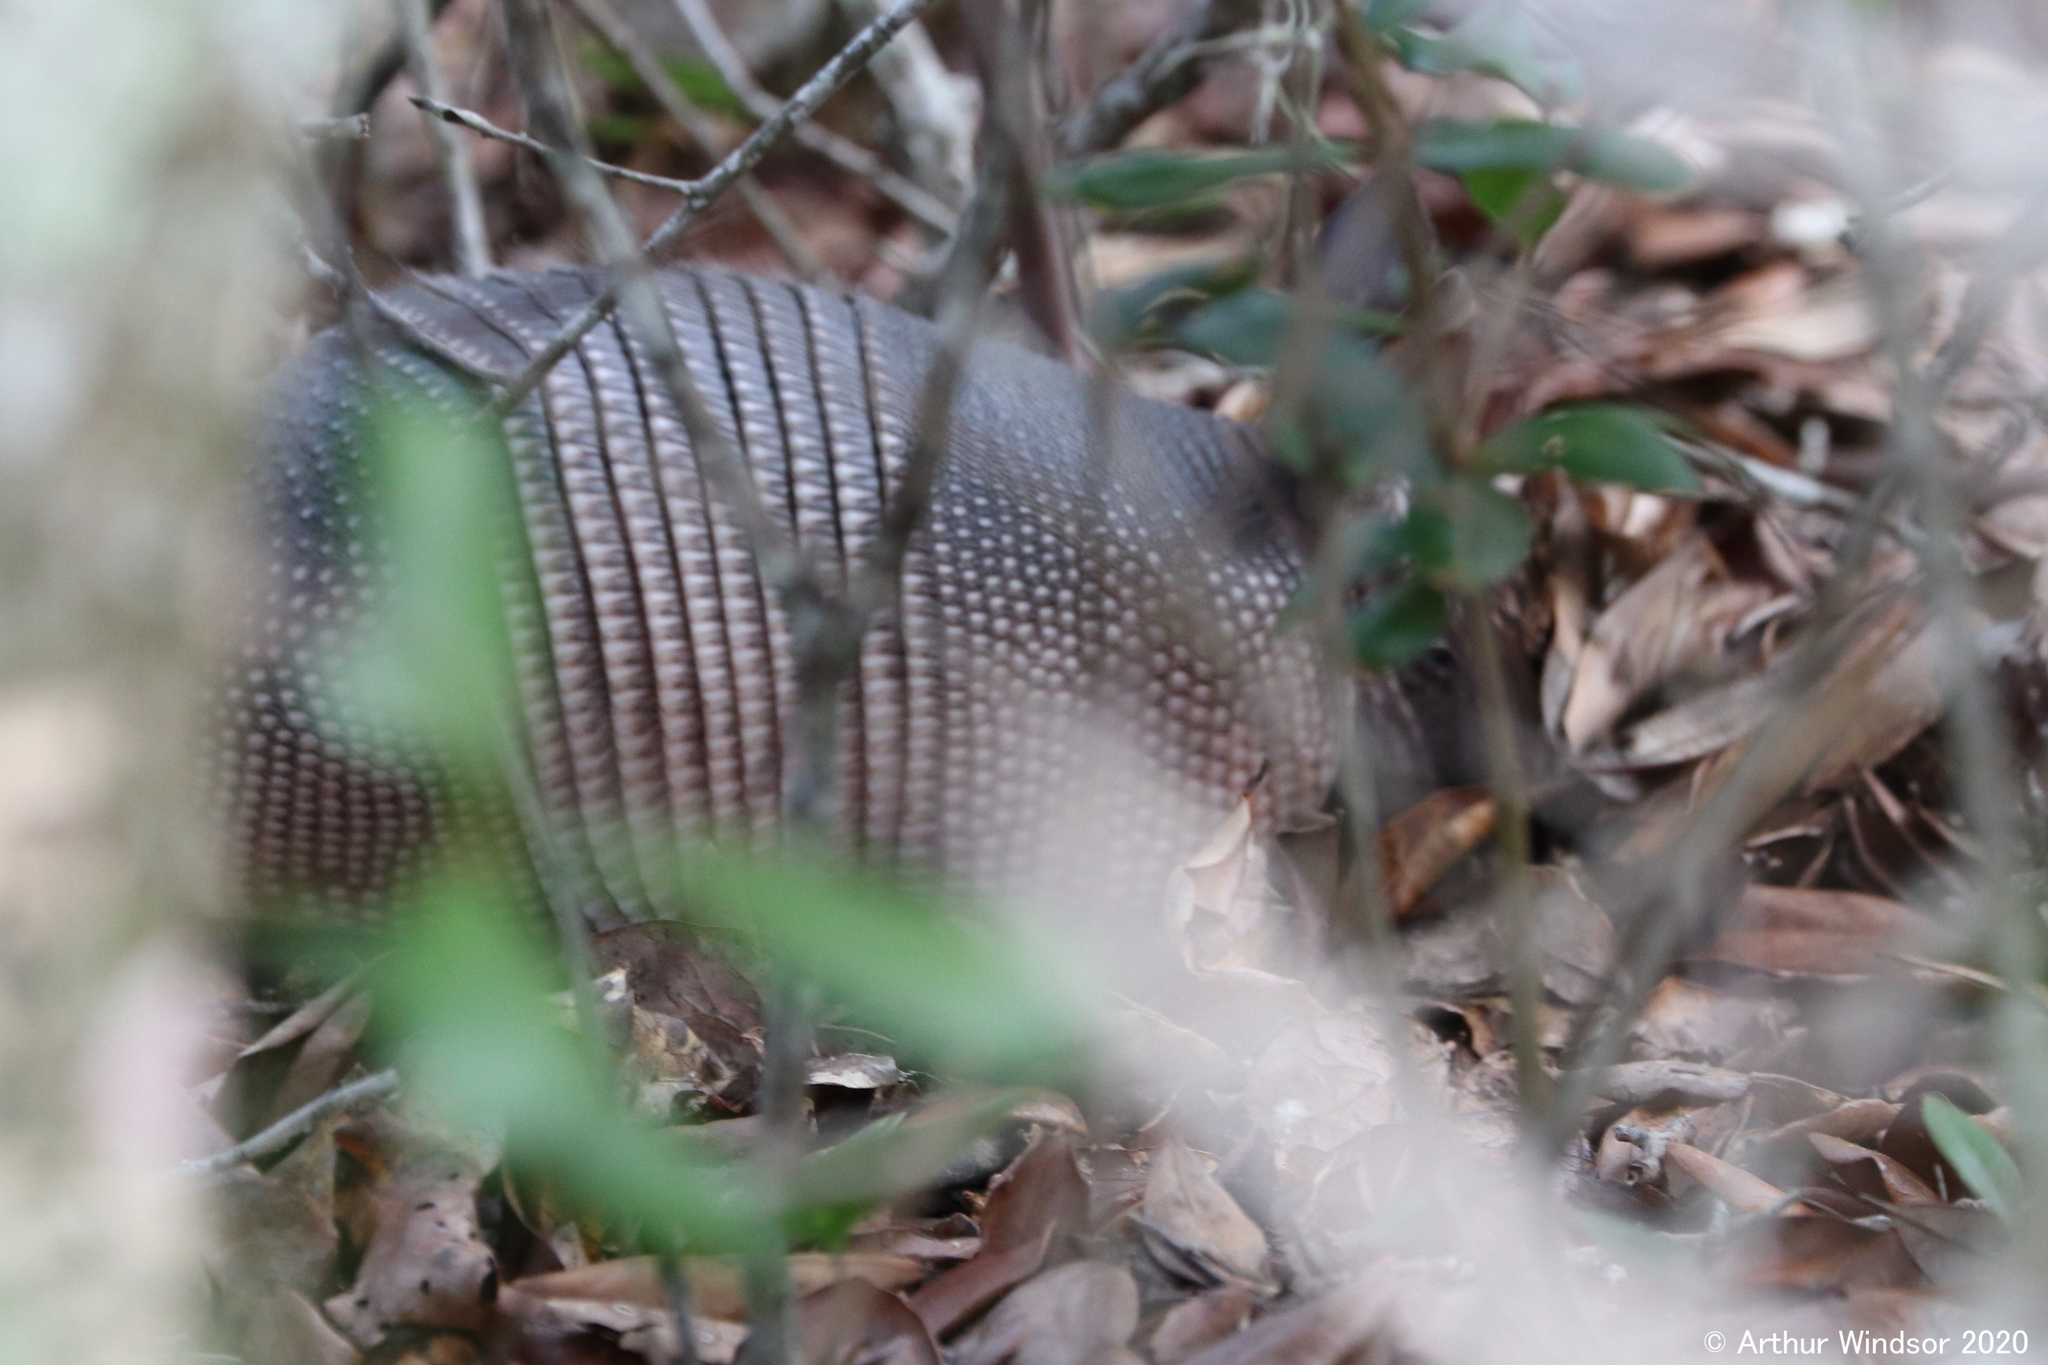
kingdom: Animalia
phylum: Chordata
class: Mammalia
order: Cingulata
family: Dasypodidae
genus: Dasypus
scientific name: Dasypus novemcinctus
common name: Nine-banded armadillo
